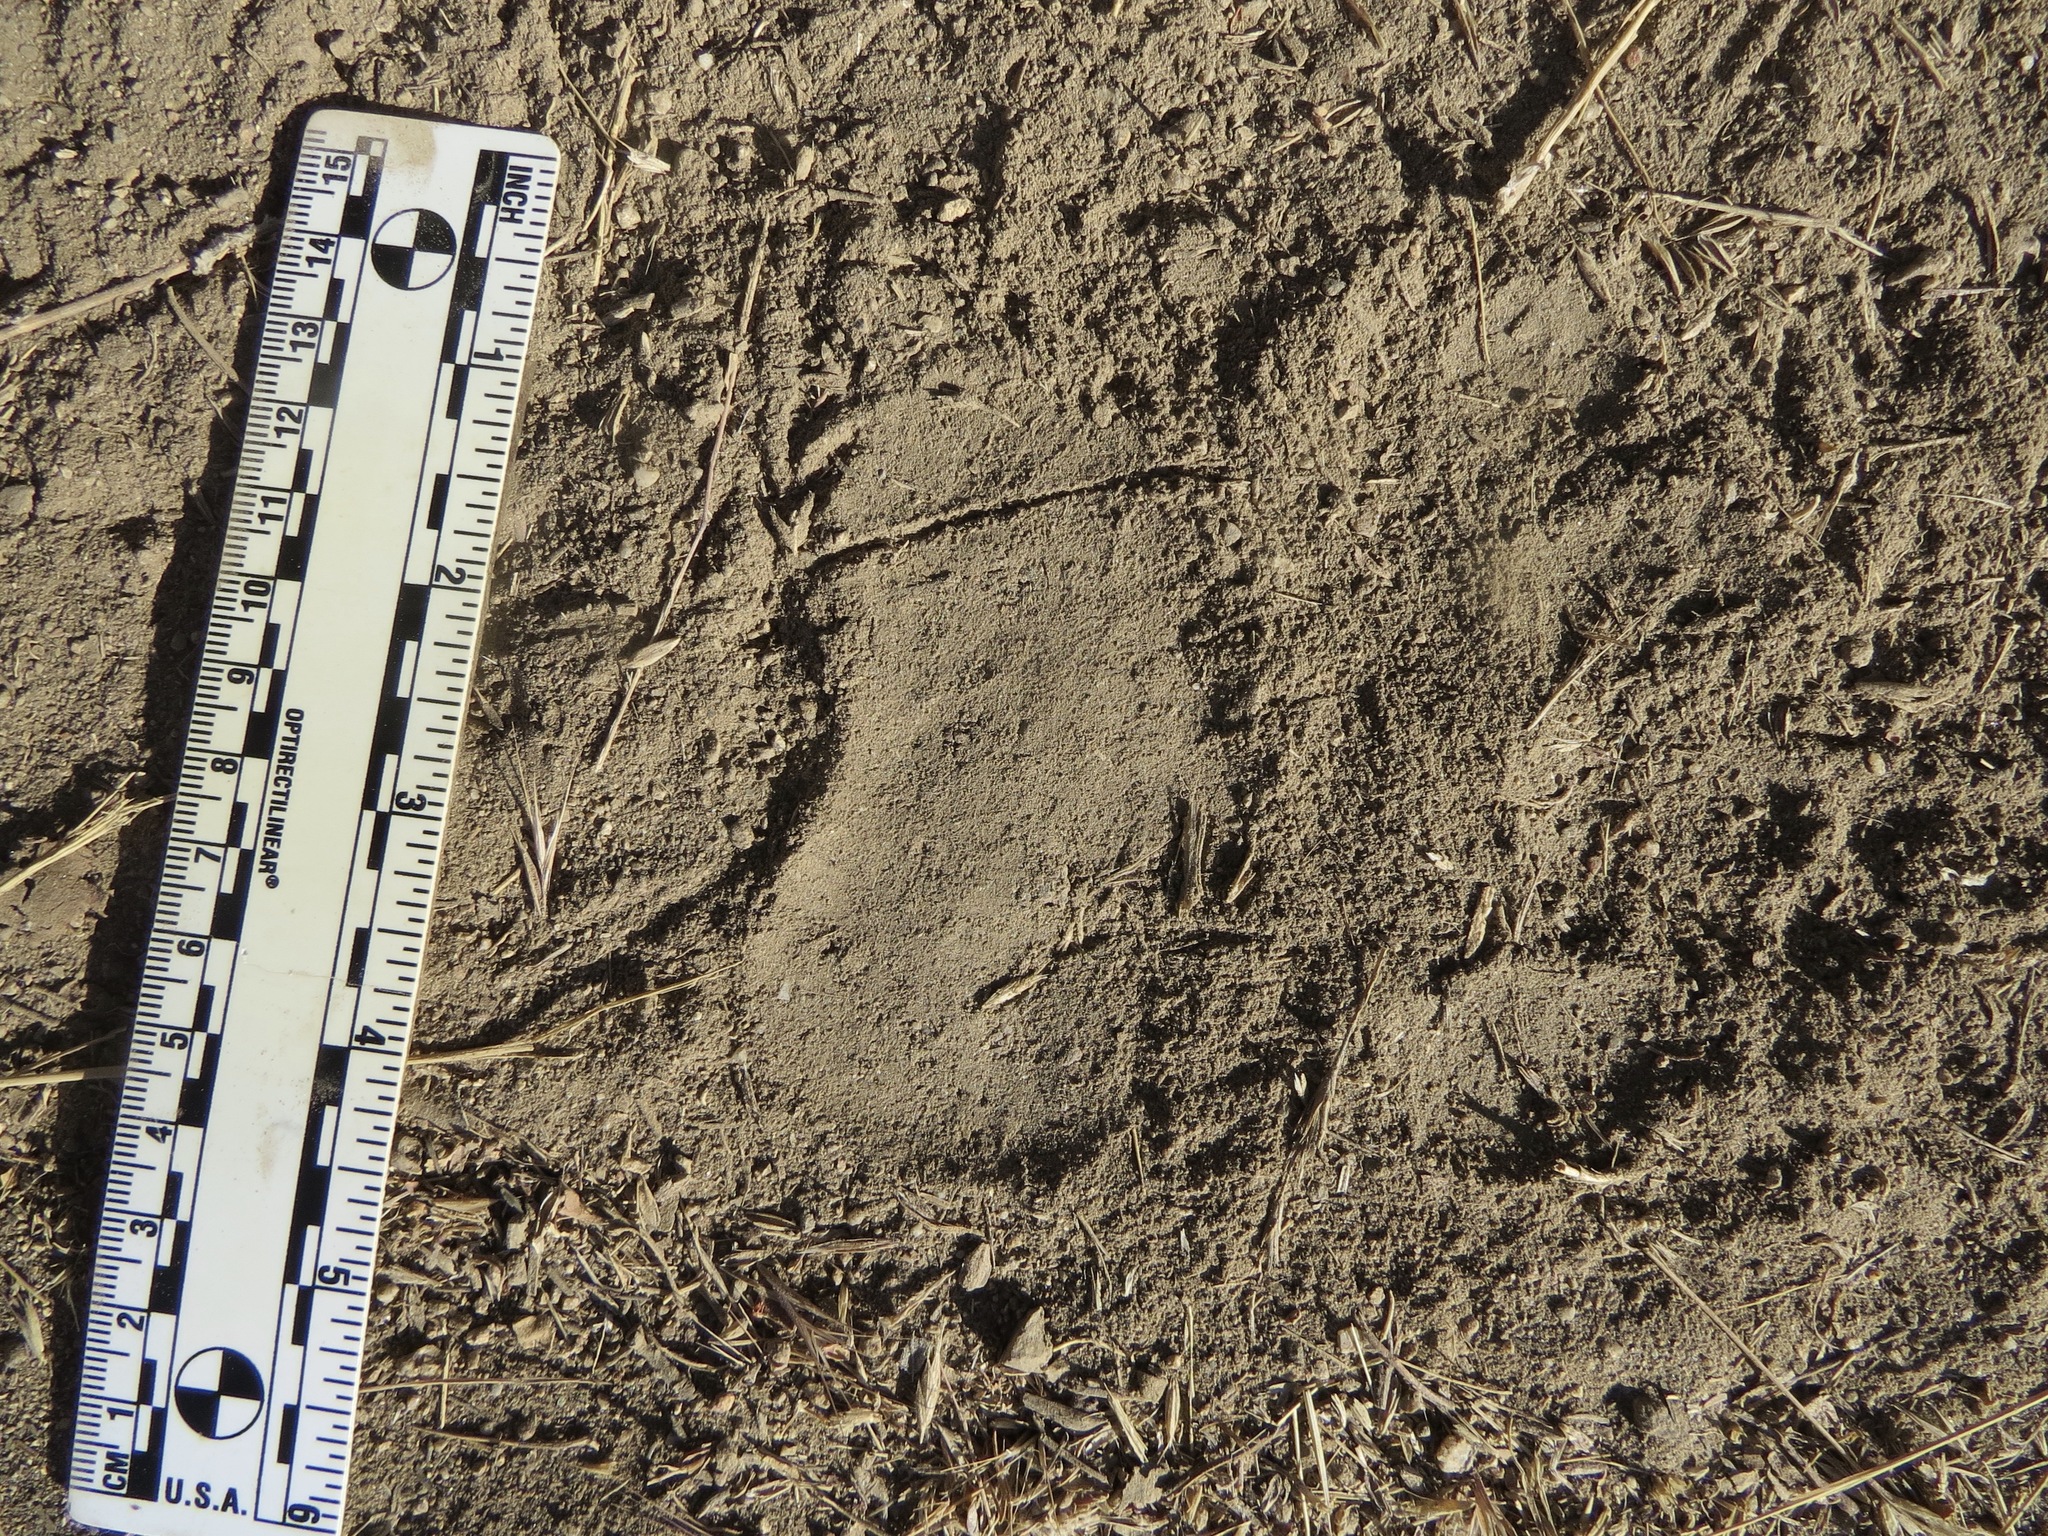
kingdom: Animalia
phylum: Chordata
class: Mammalia
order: Carnivora
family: Ursidae
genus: Ursus
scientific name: Ursus americanus
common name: American black bear
